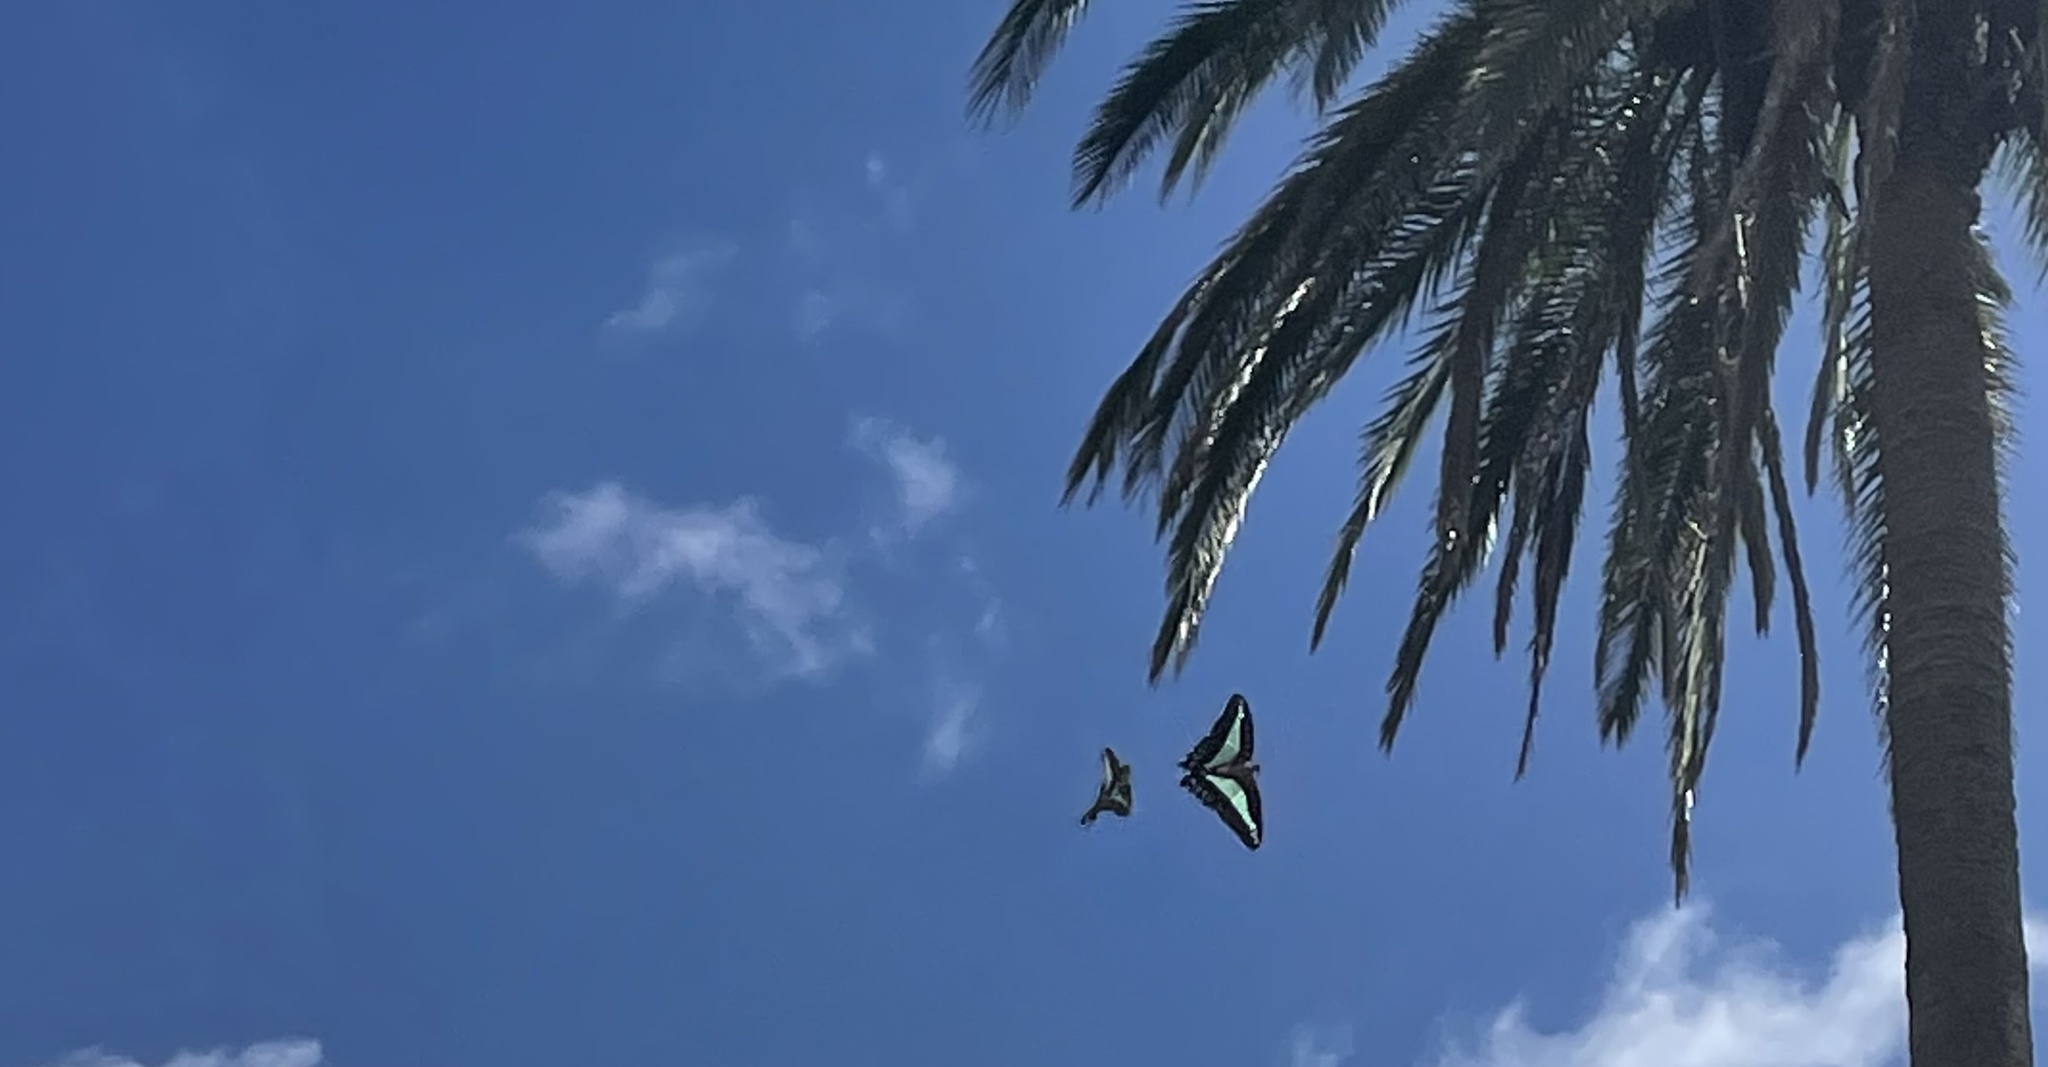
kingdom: Animalia
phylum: Arthropoda
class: Insecta
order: Lepidoptera
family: Papilionidae
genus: Graphium
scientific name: Graphium
